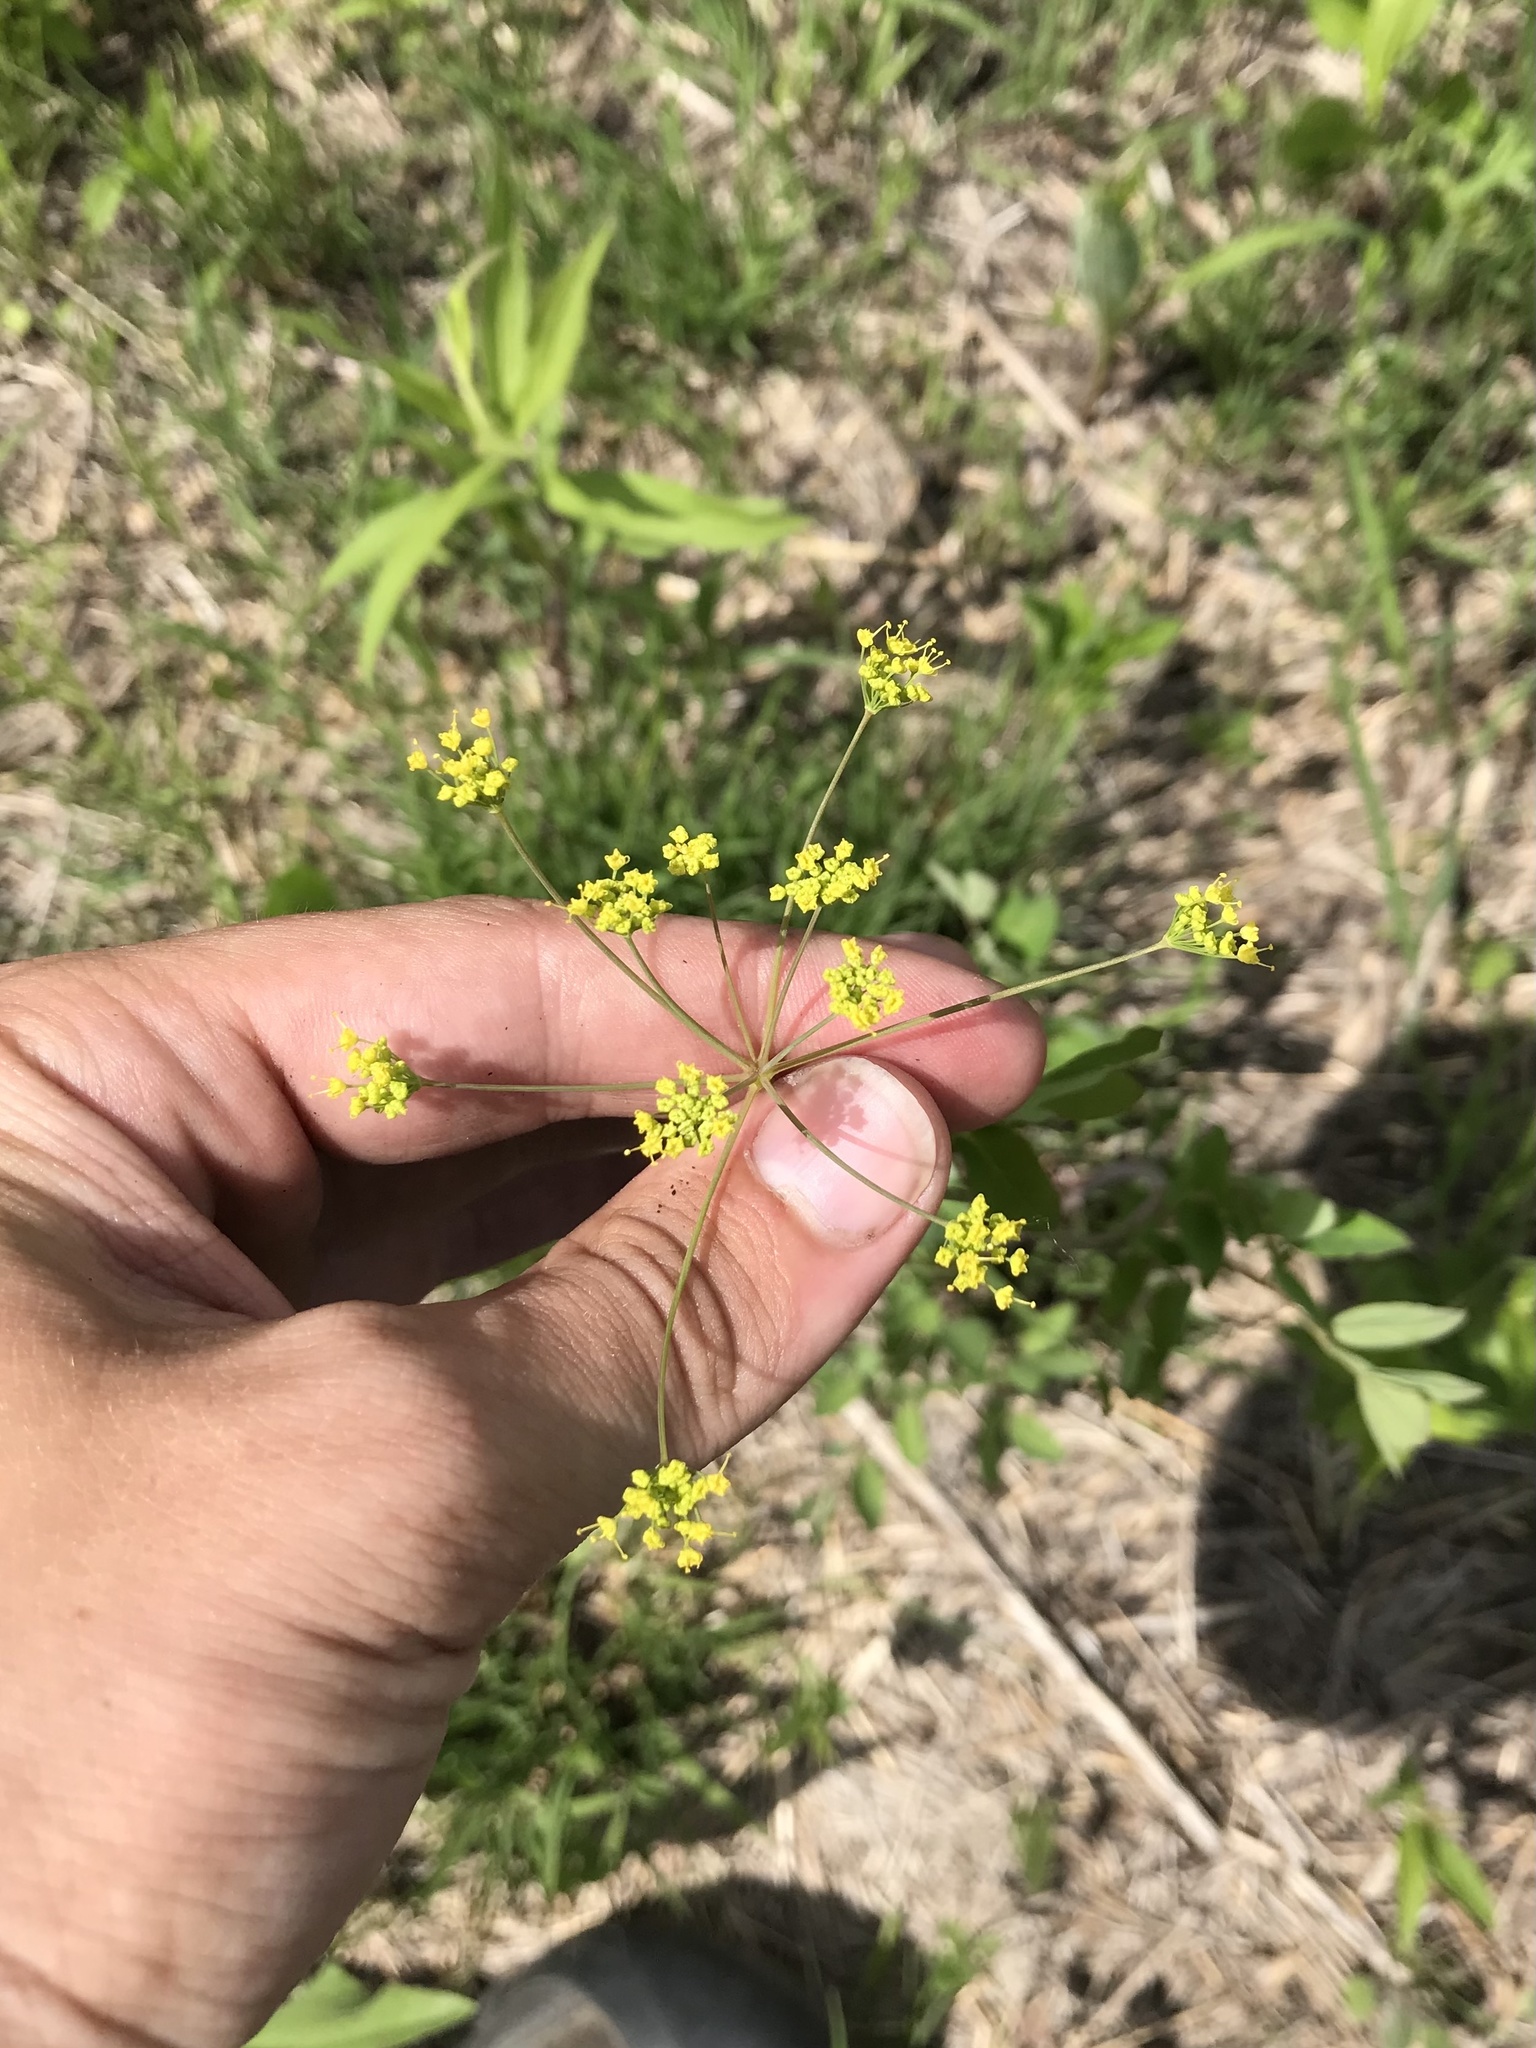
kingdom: Plantae
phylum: Tracheophyta
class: Magnoliopsida
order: Apiales
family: Apiaceae
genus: Taenidia
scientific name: Taenidia integerrima
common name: Golden alexander
